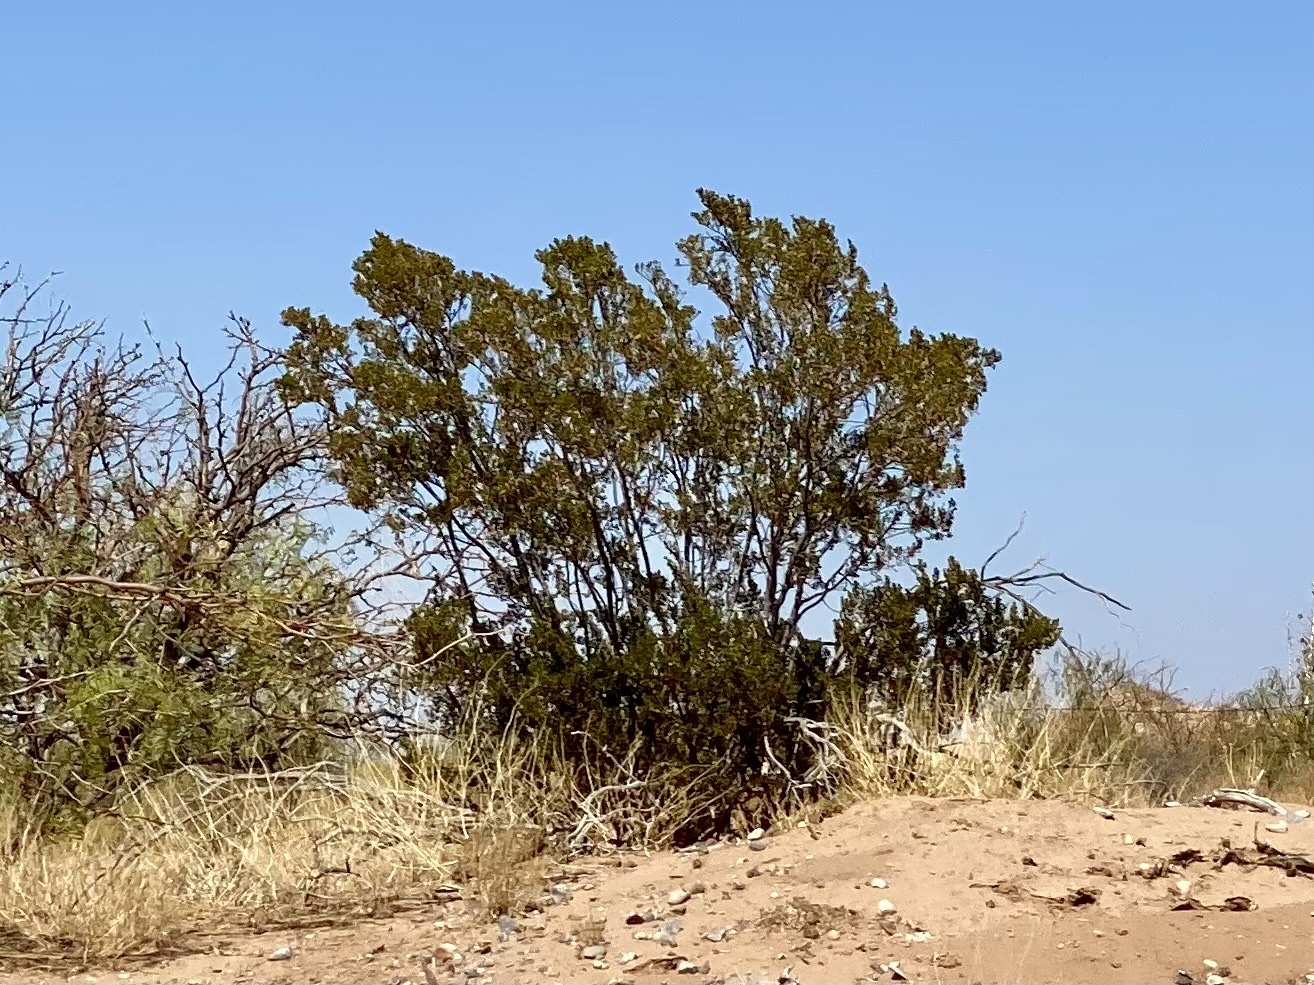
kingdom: Plantae
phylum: Tracheophyta
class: Magnoliopsida
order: Zygophyllales
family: Zygophyllaceae
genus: Larrea
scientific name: Larrea tridentata
